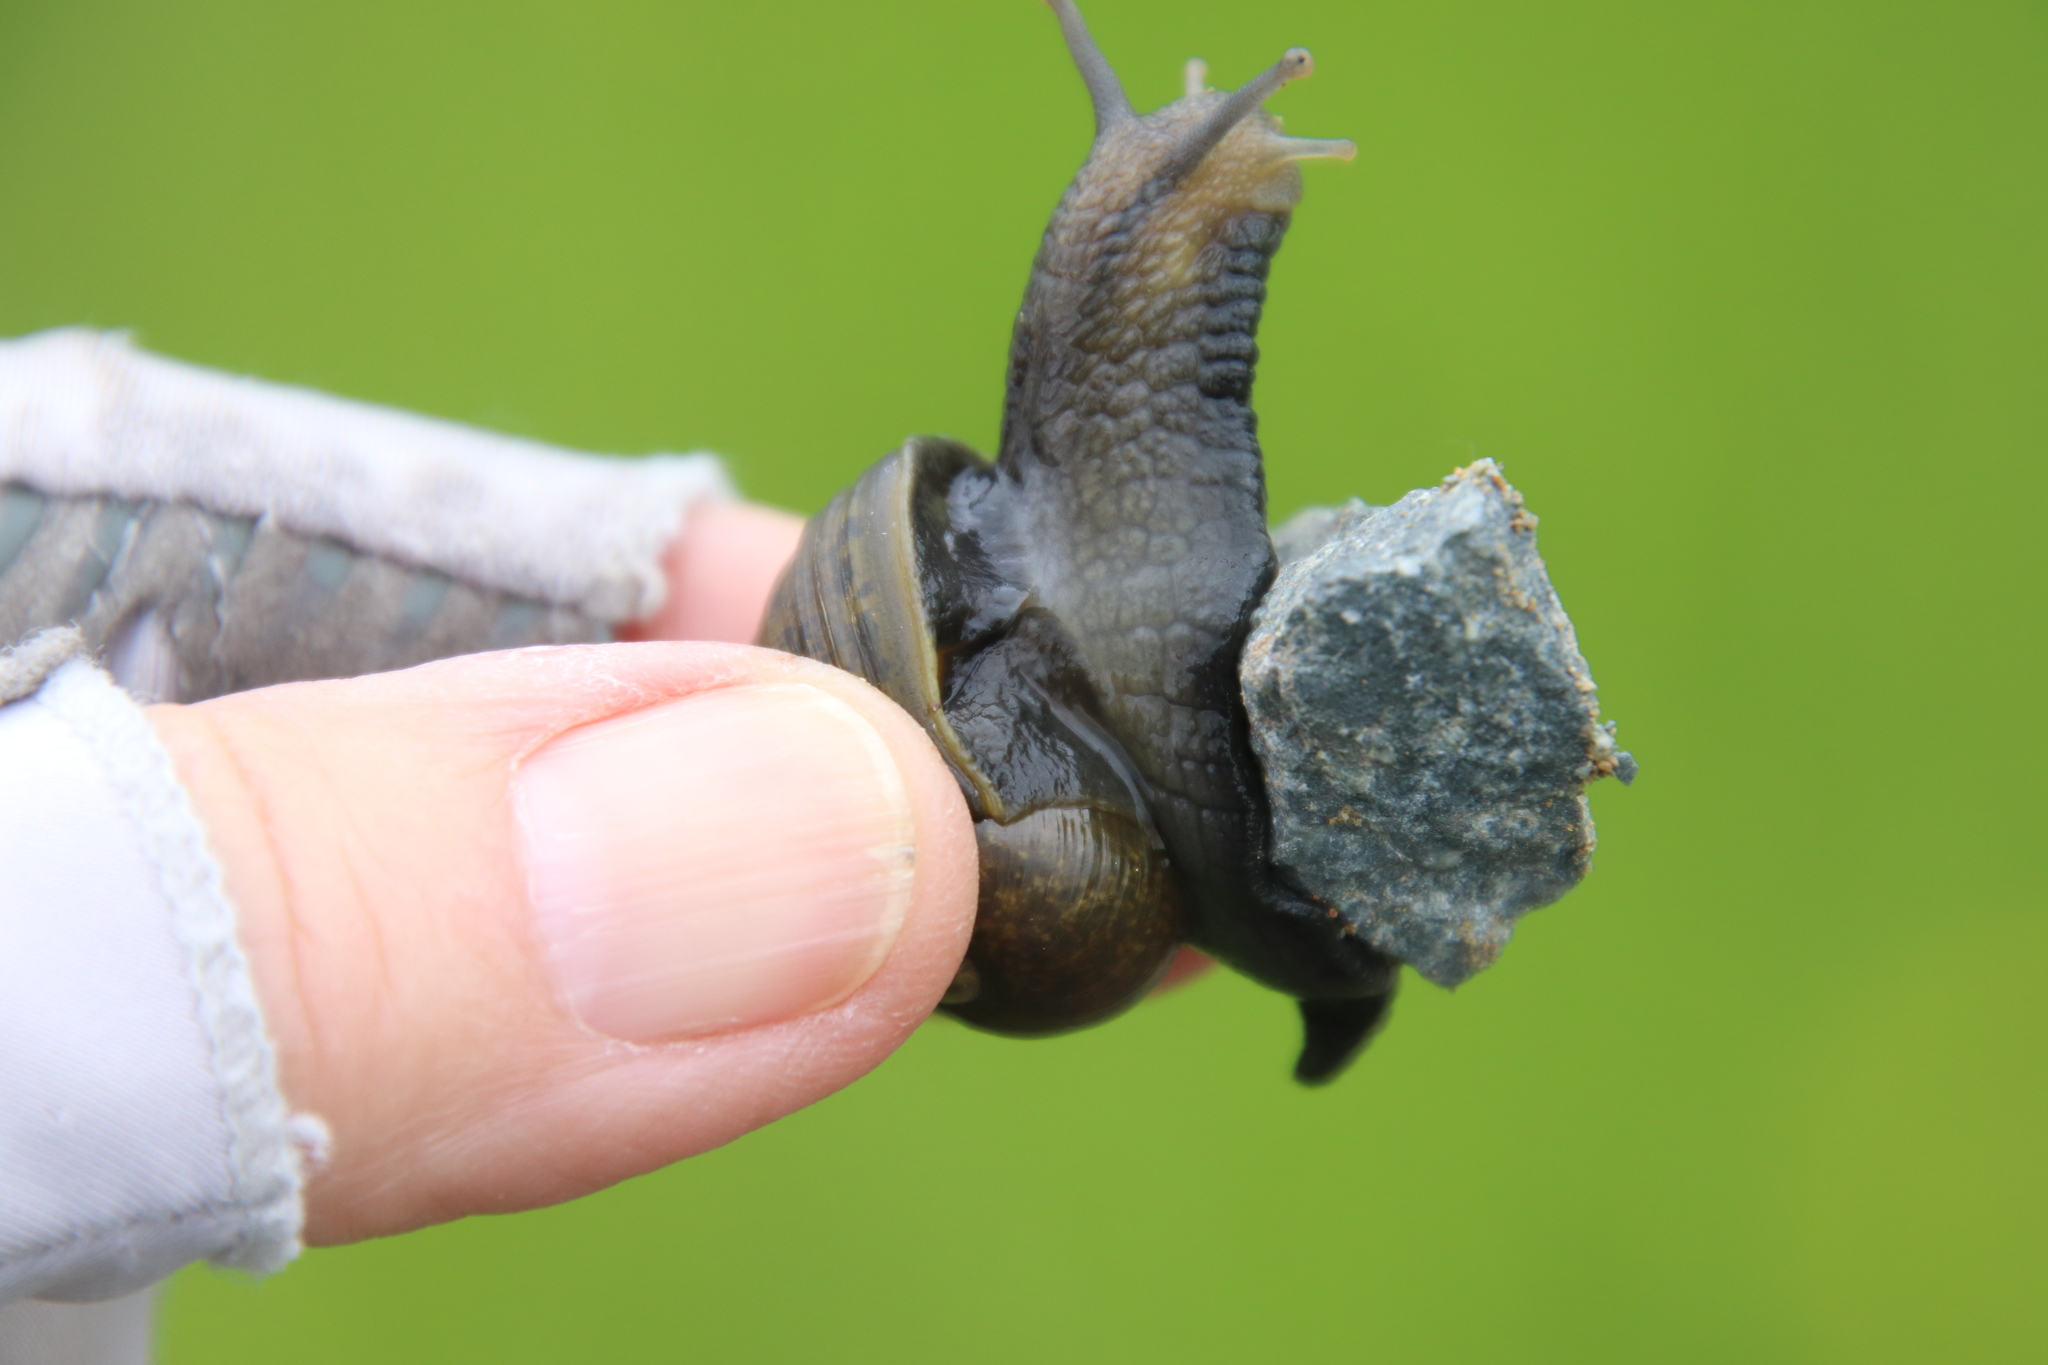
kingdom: Animalia
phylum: Mollusca
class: Gastropoda
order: Stylommatophora
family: Helicidae
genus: Cantareus
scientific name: Cantareus apertus
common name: Green gardensnail
